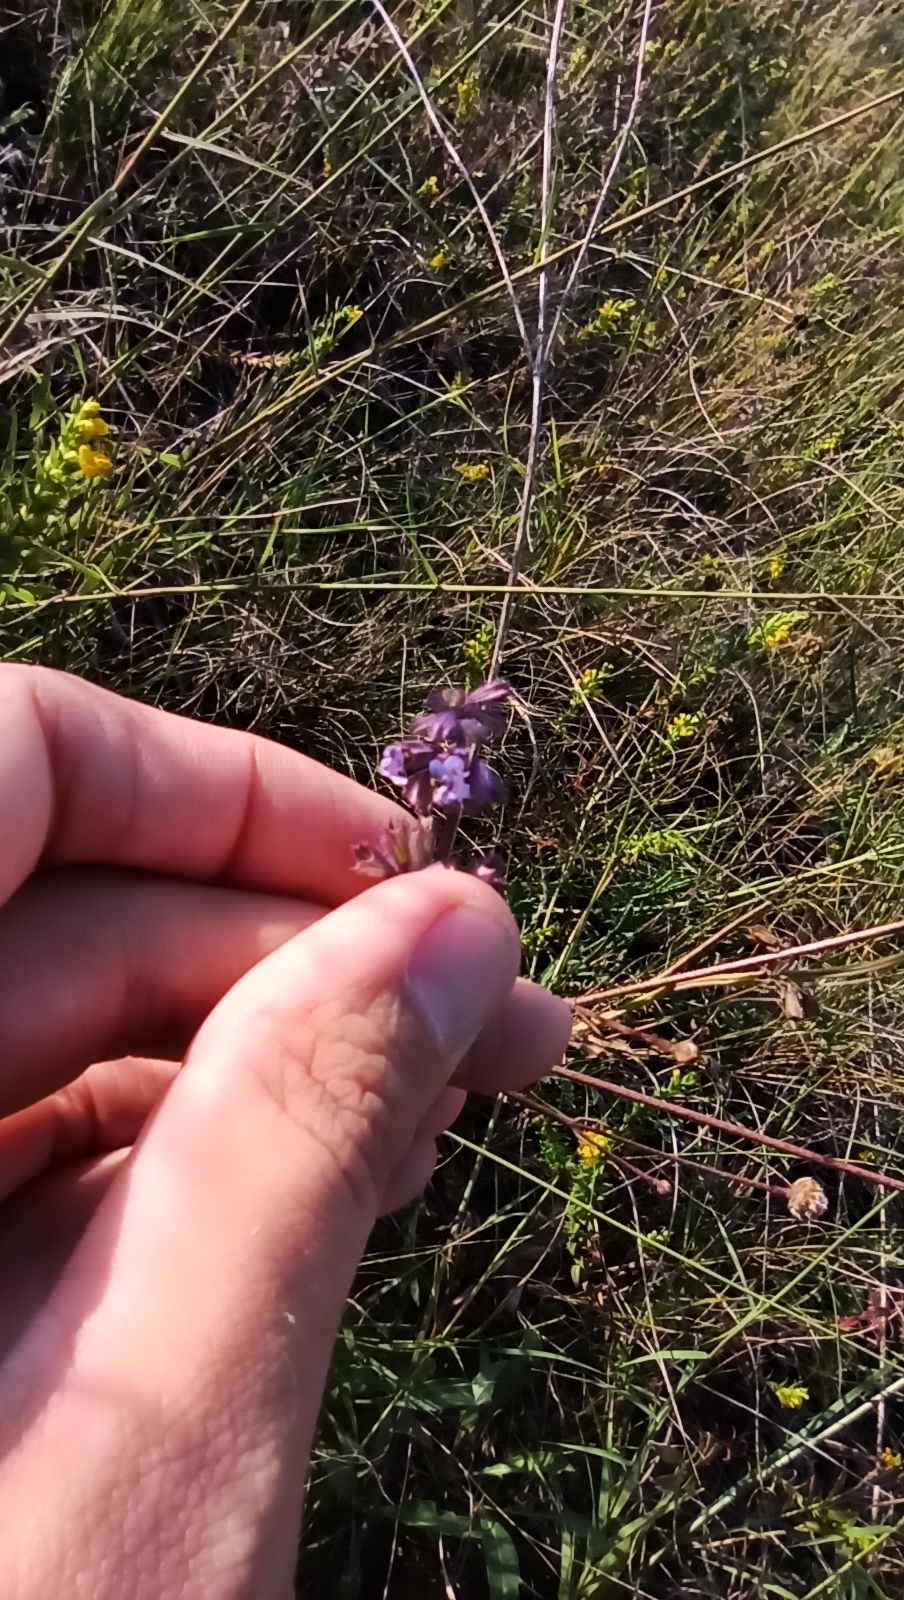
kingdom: Plantae
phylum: Tracheophyta
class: Magnoliopsida
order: Lamiales
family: Lamiaceae
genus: Salvia
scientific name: Salvia verticillata
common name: Whorled clary
